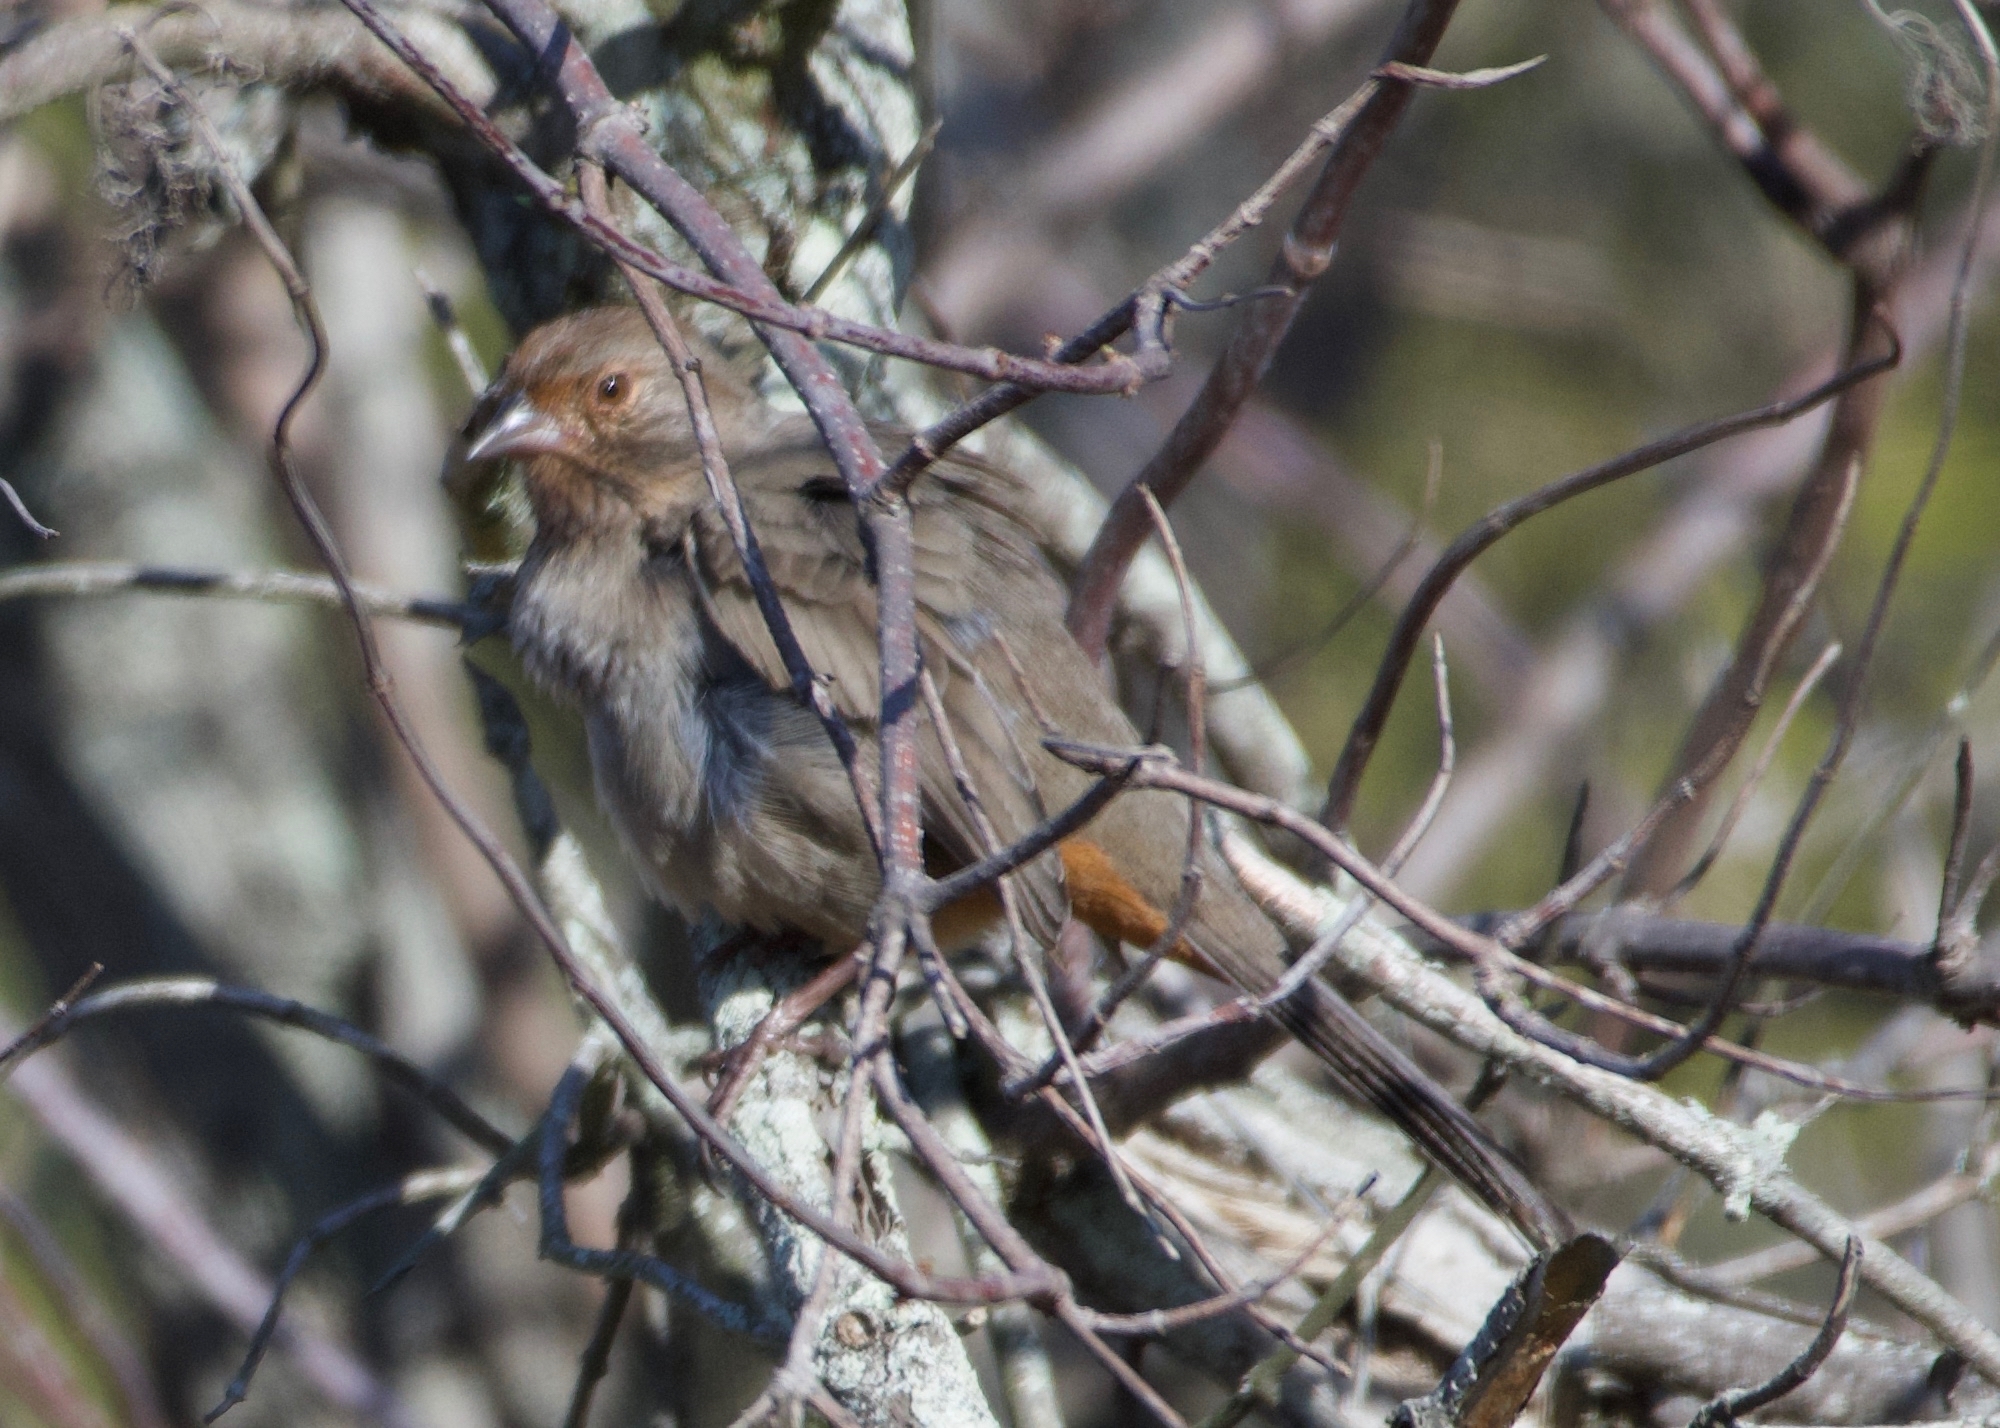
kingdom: Animalia
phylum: Chordata
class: Aves
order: Passeriformes
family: Passerellidae
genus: Melozone
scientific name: Melozone crissalis
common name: California towhee
